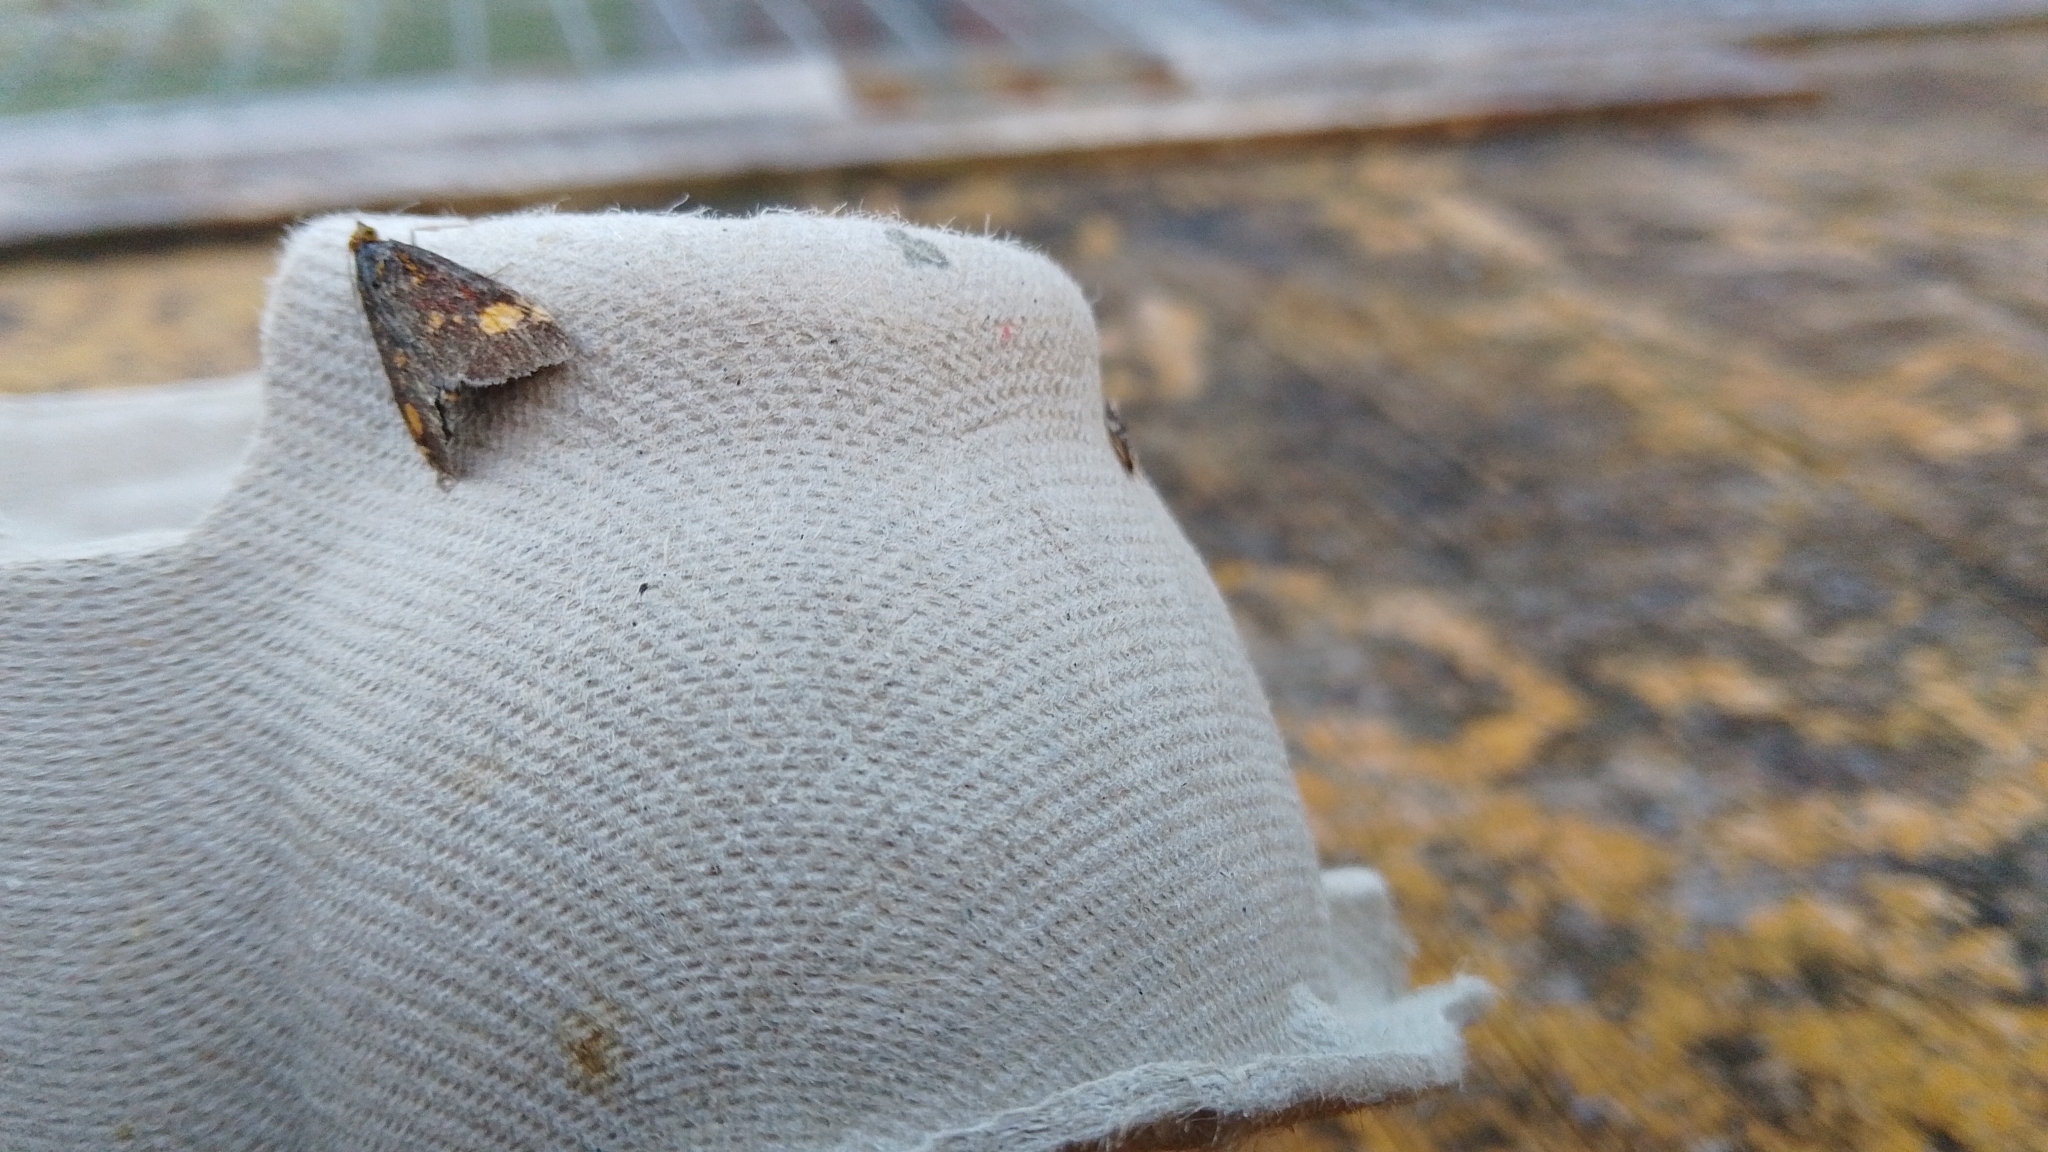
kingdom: Animalia
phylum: Arthropoda
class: Insecta
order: Lepidoptera
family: Crambidae
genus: Pyrausta
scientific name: Pyrausta aurata
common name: Small purple & gold
